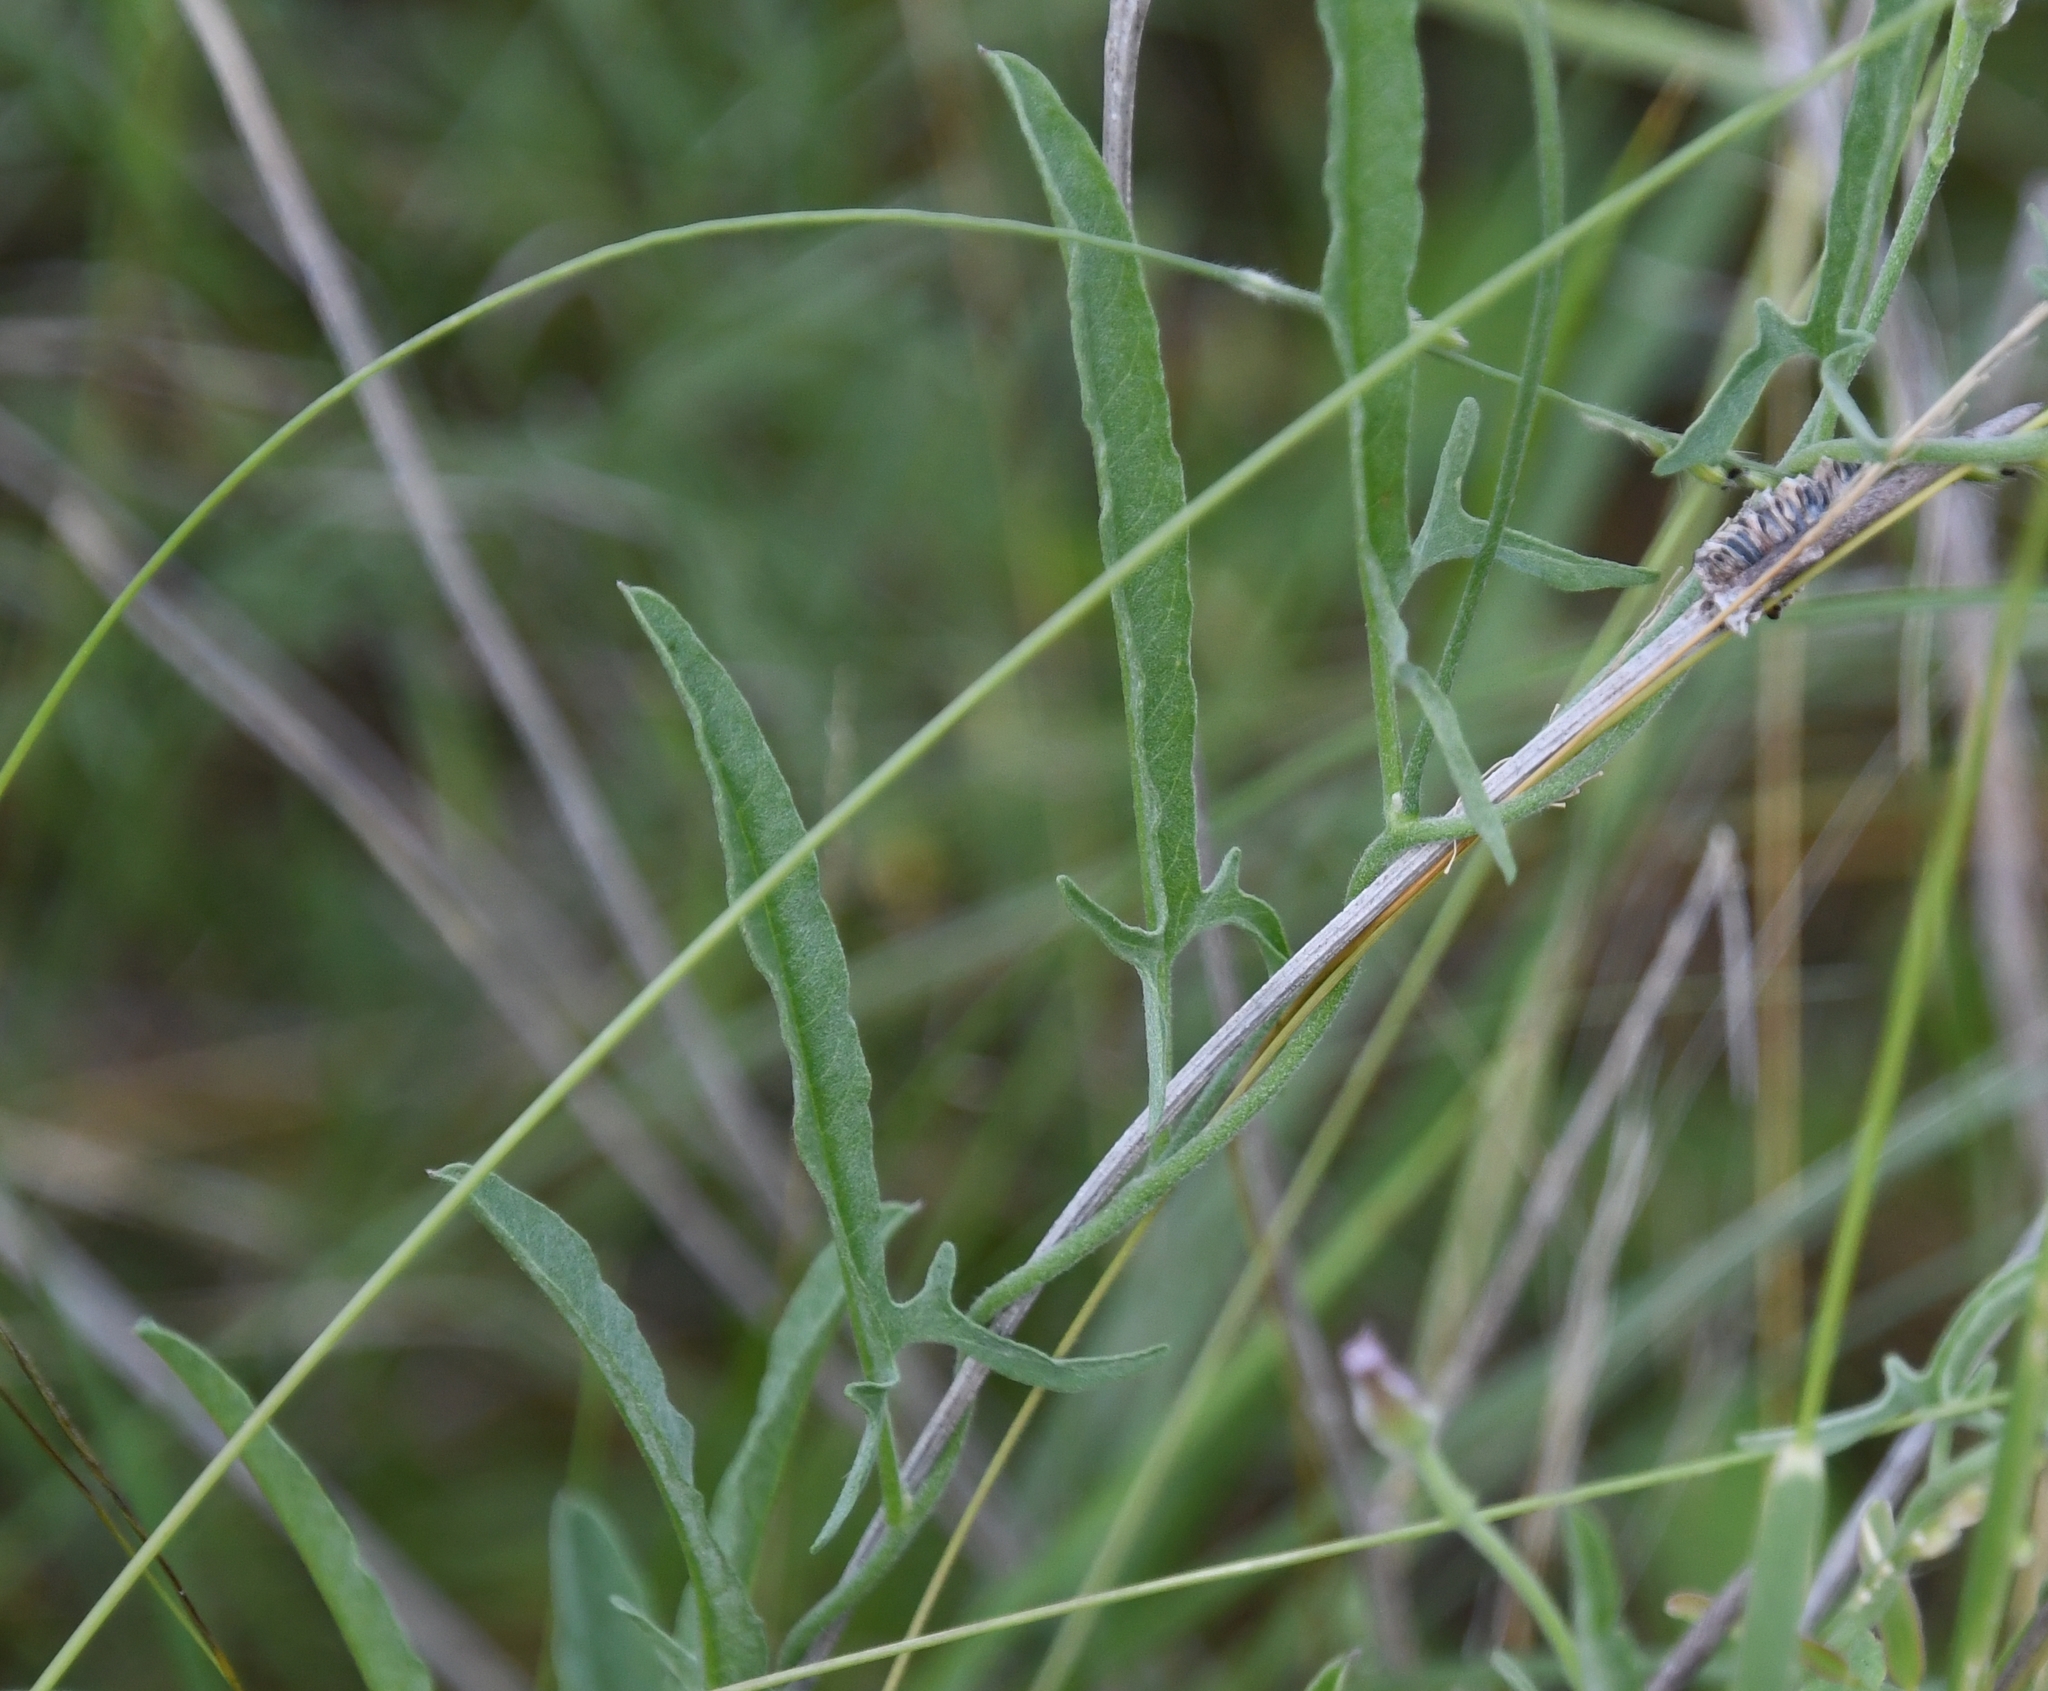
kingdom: Plantae
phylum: Tracheophyta
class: Magnoliopsida
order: Solanales
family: Convolvulaceae
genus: Convolvulus
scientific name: Convolvulus equitans
